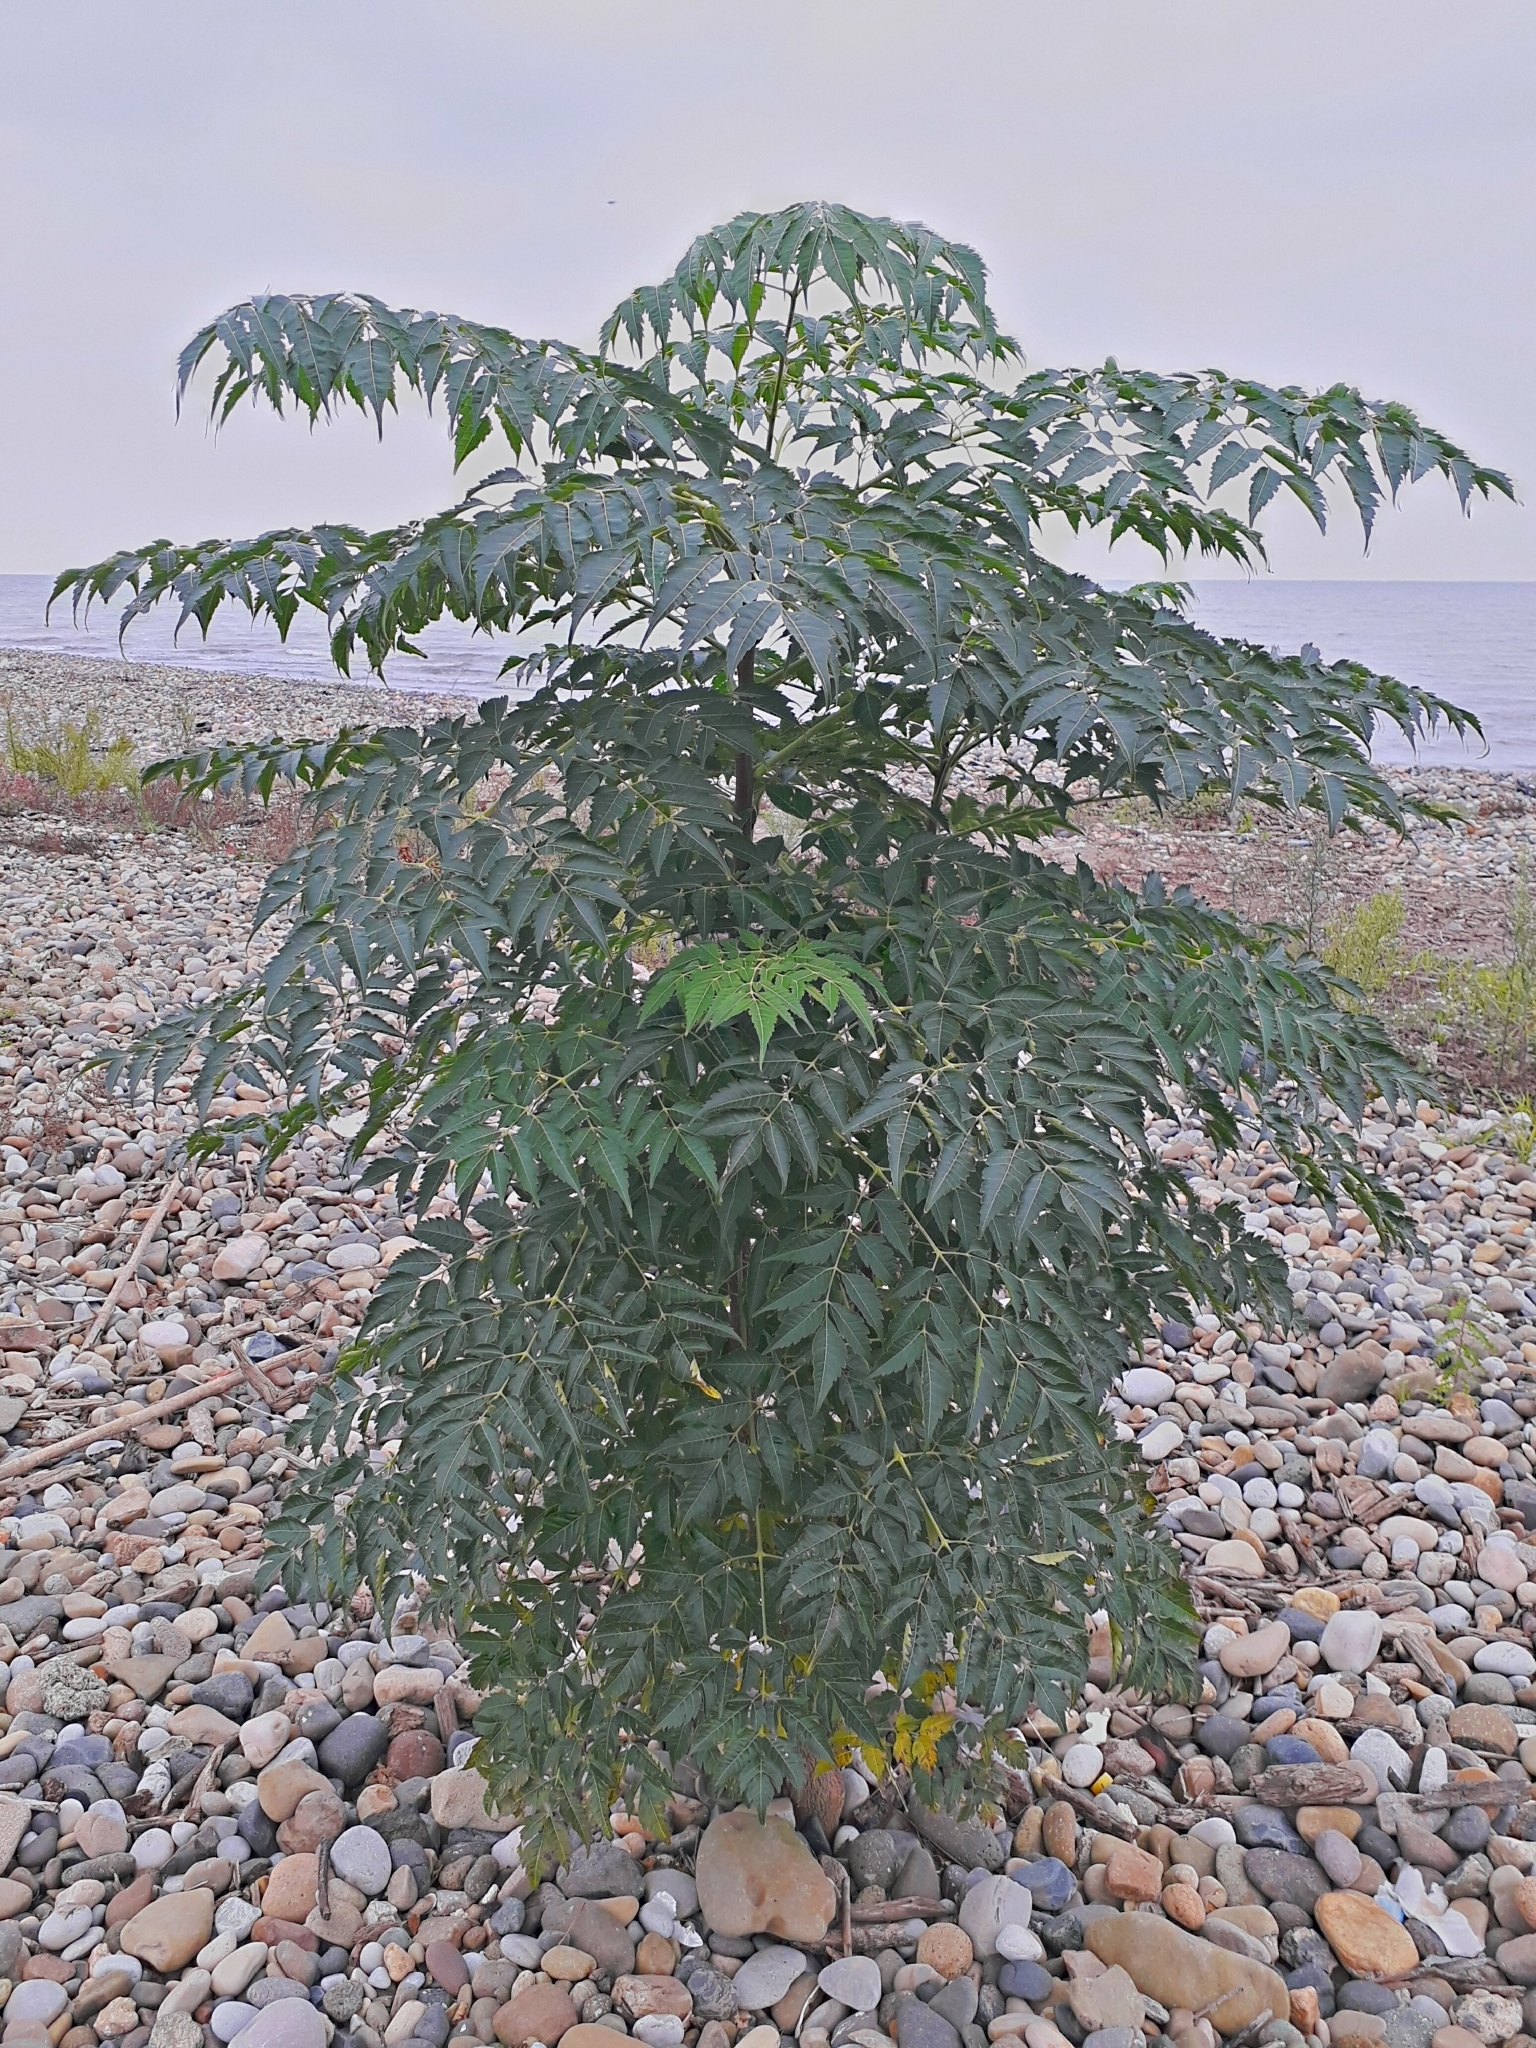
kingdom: Plantae
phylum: Tracheophyta
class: Magnoliopsida
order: Sapindales
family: Meliaceae
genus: Melia
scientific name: Melia azedarach
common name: Chinaberrytree
